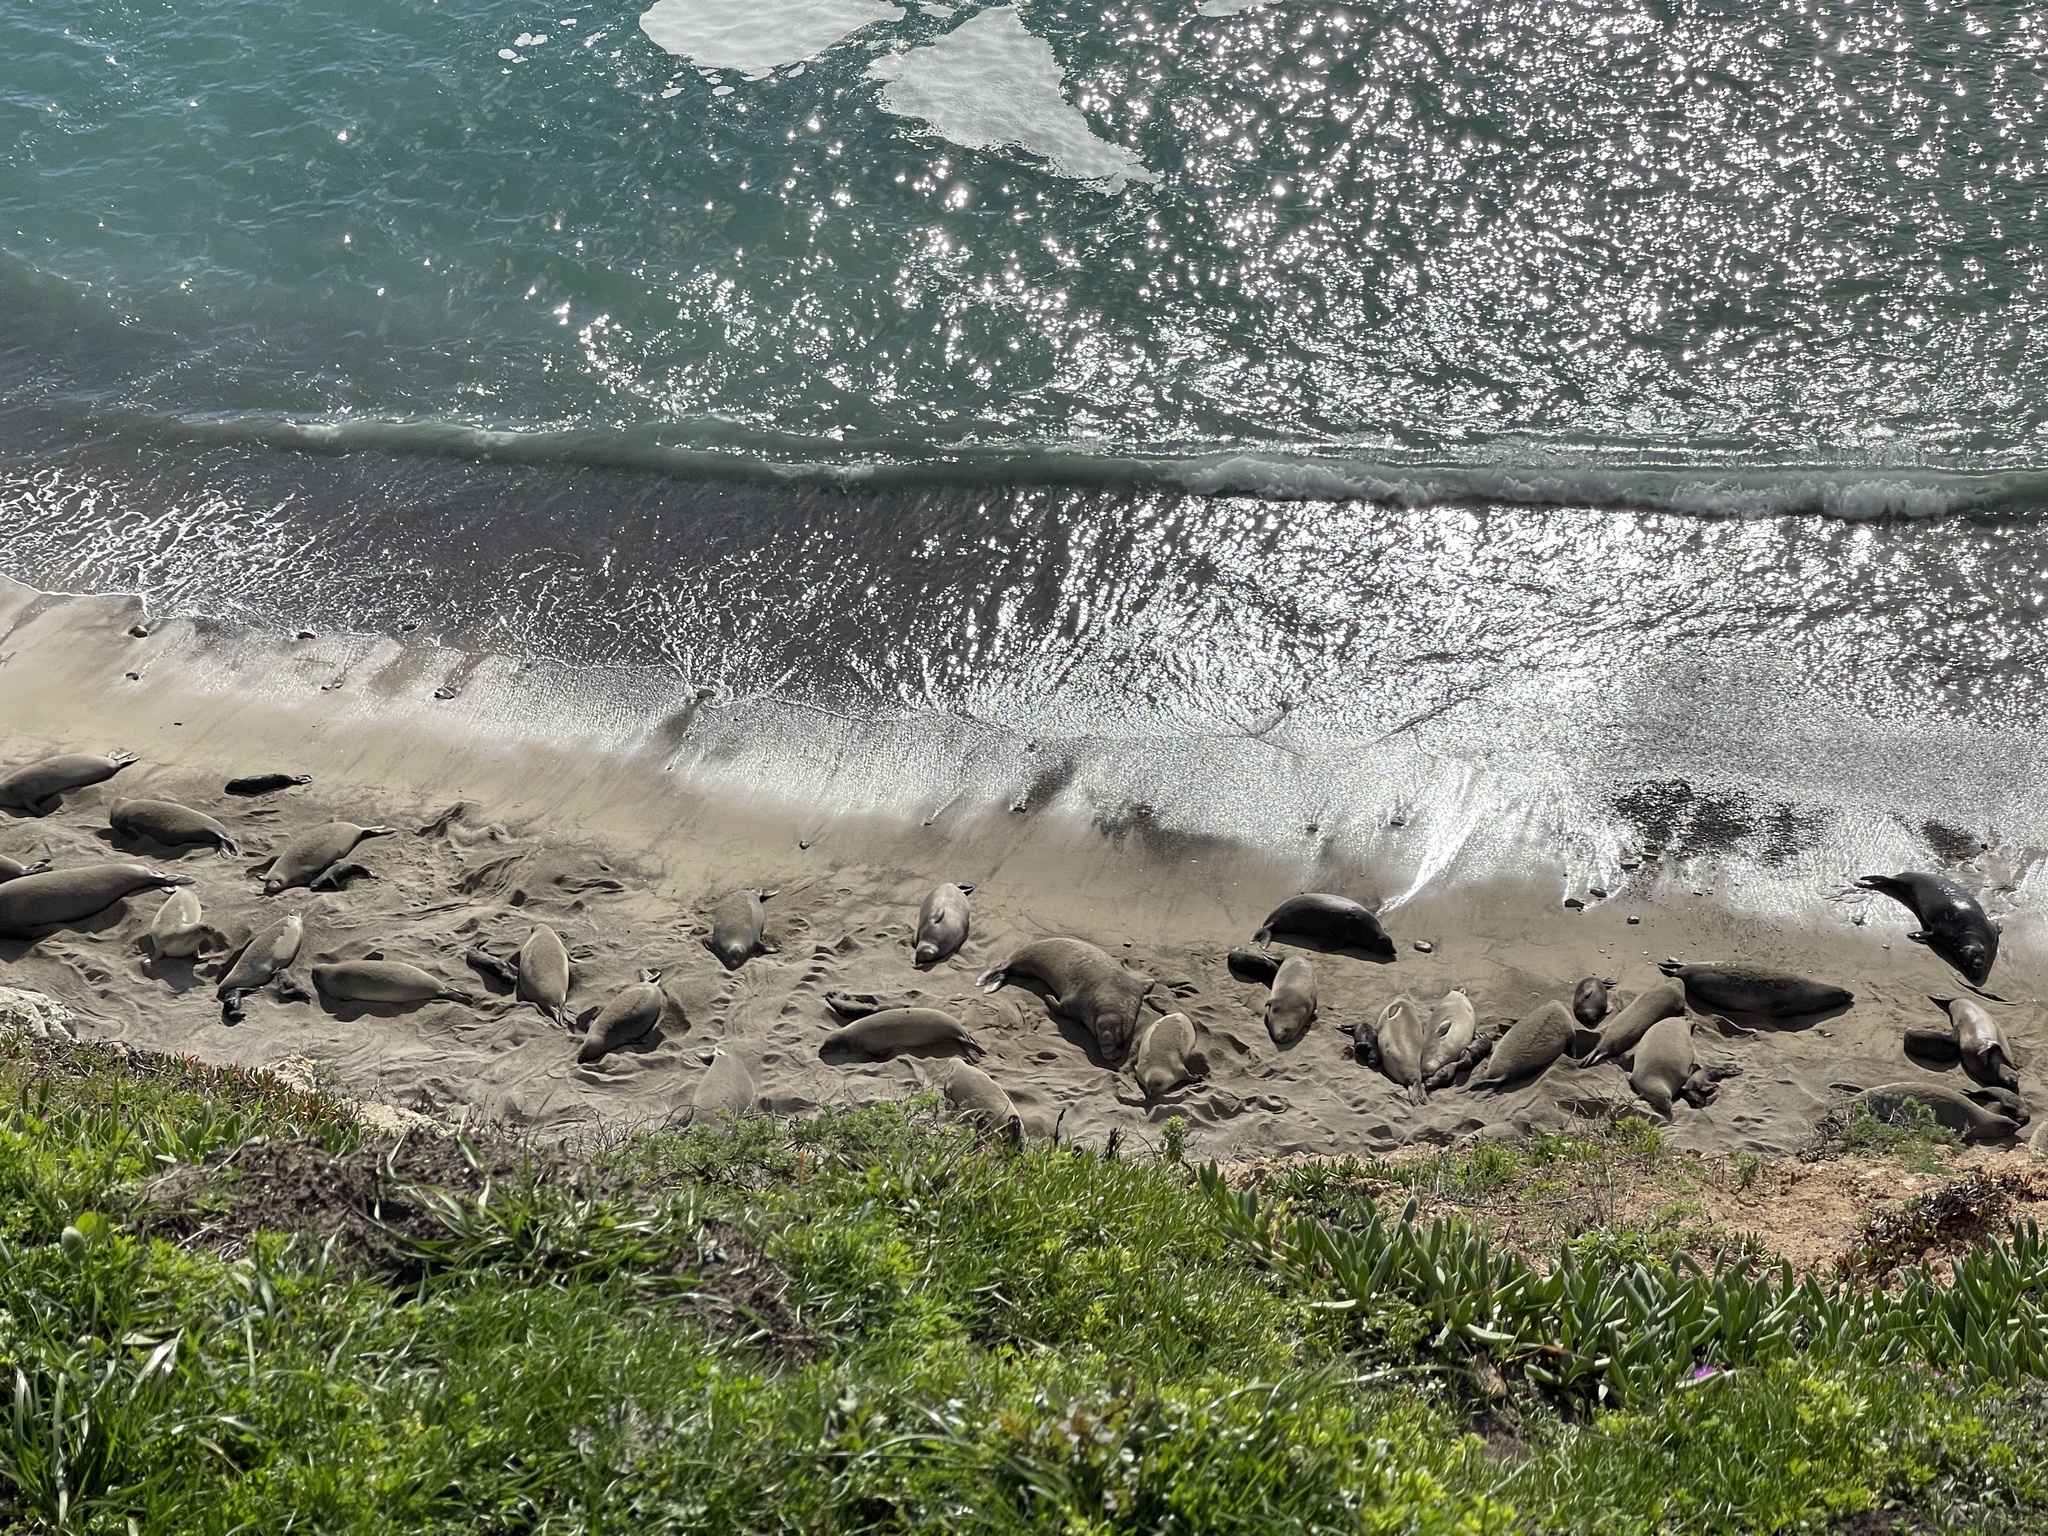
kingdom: Animalia
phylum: Chordata
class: Mammalia
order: Carnivora
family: Phocidae
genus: Mirounga
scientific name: Mirounga angustirostris
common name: Northern elephant seal
